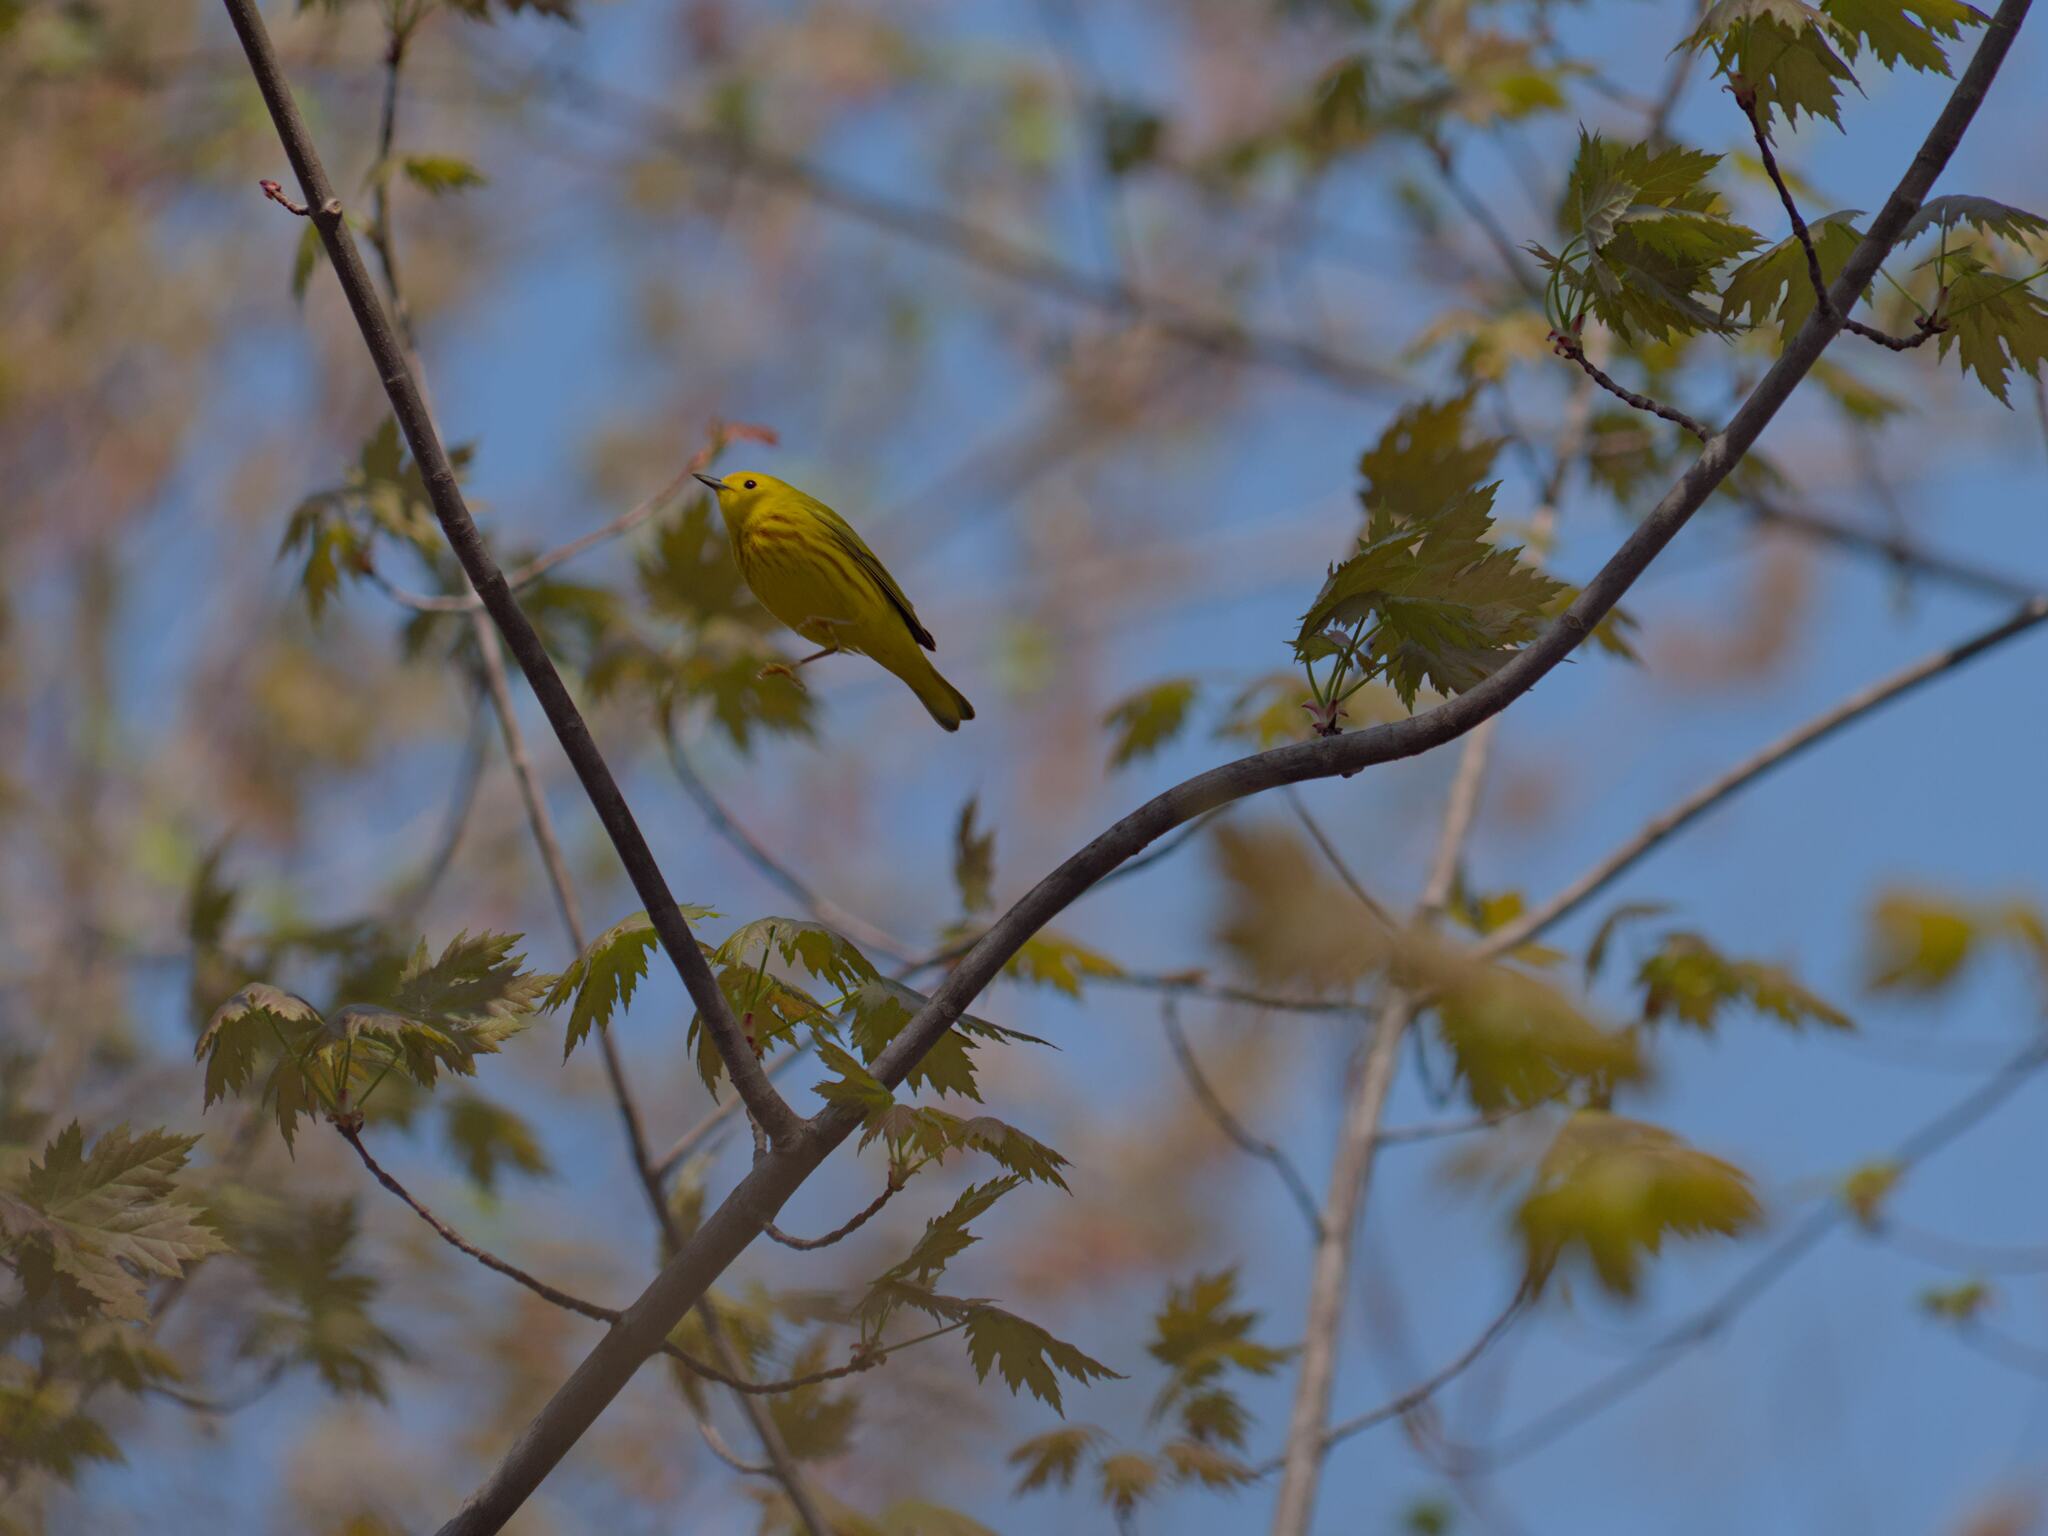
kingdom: Animalia
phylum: Chordata
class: Aves
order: Passeriformes
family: Parulidae
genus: Setophaga
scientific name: Setophaga petechia
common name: Yellow warbler
